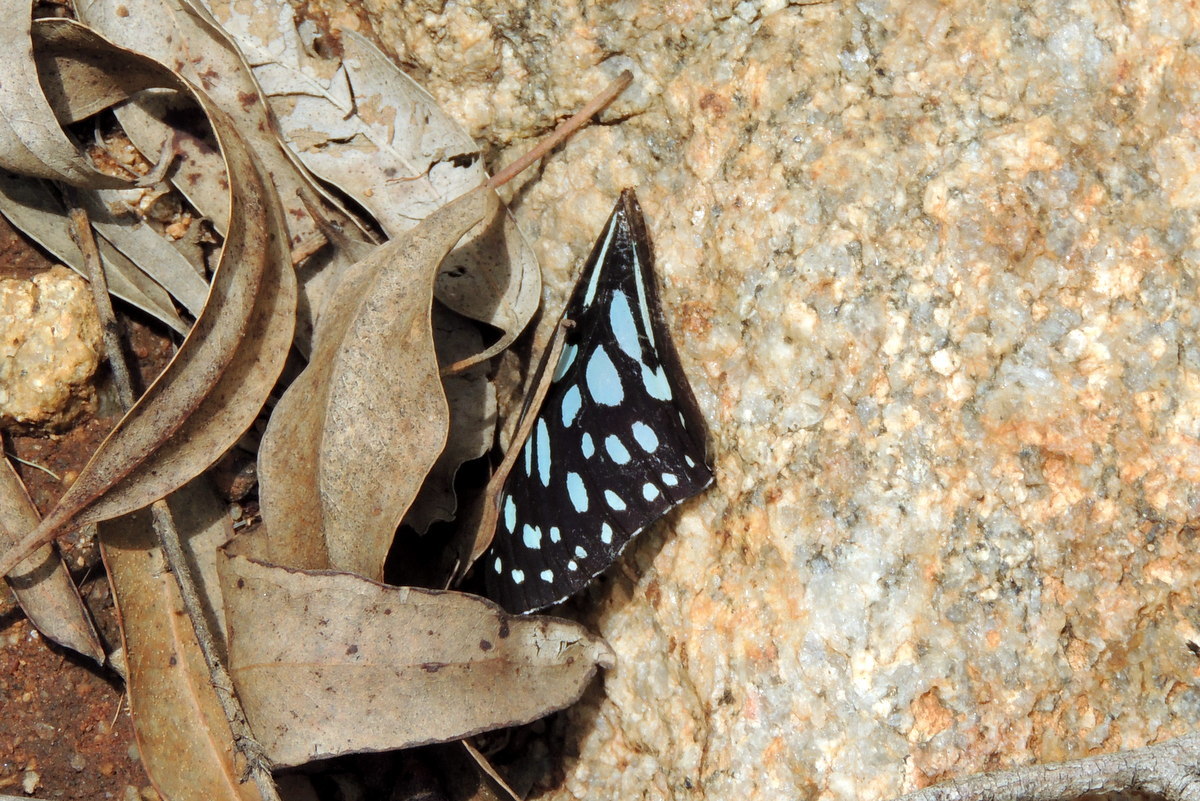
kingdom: Animalia
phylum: Arthropoda
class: Insecta
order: Lepidoptera
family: Nymphalidae
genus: Tirumala
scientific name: Tirumala limniace
